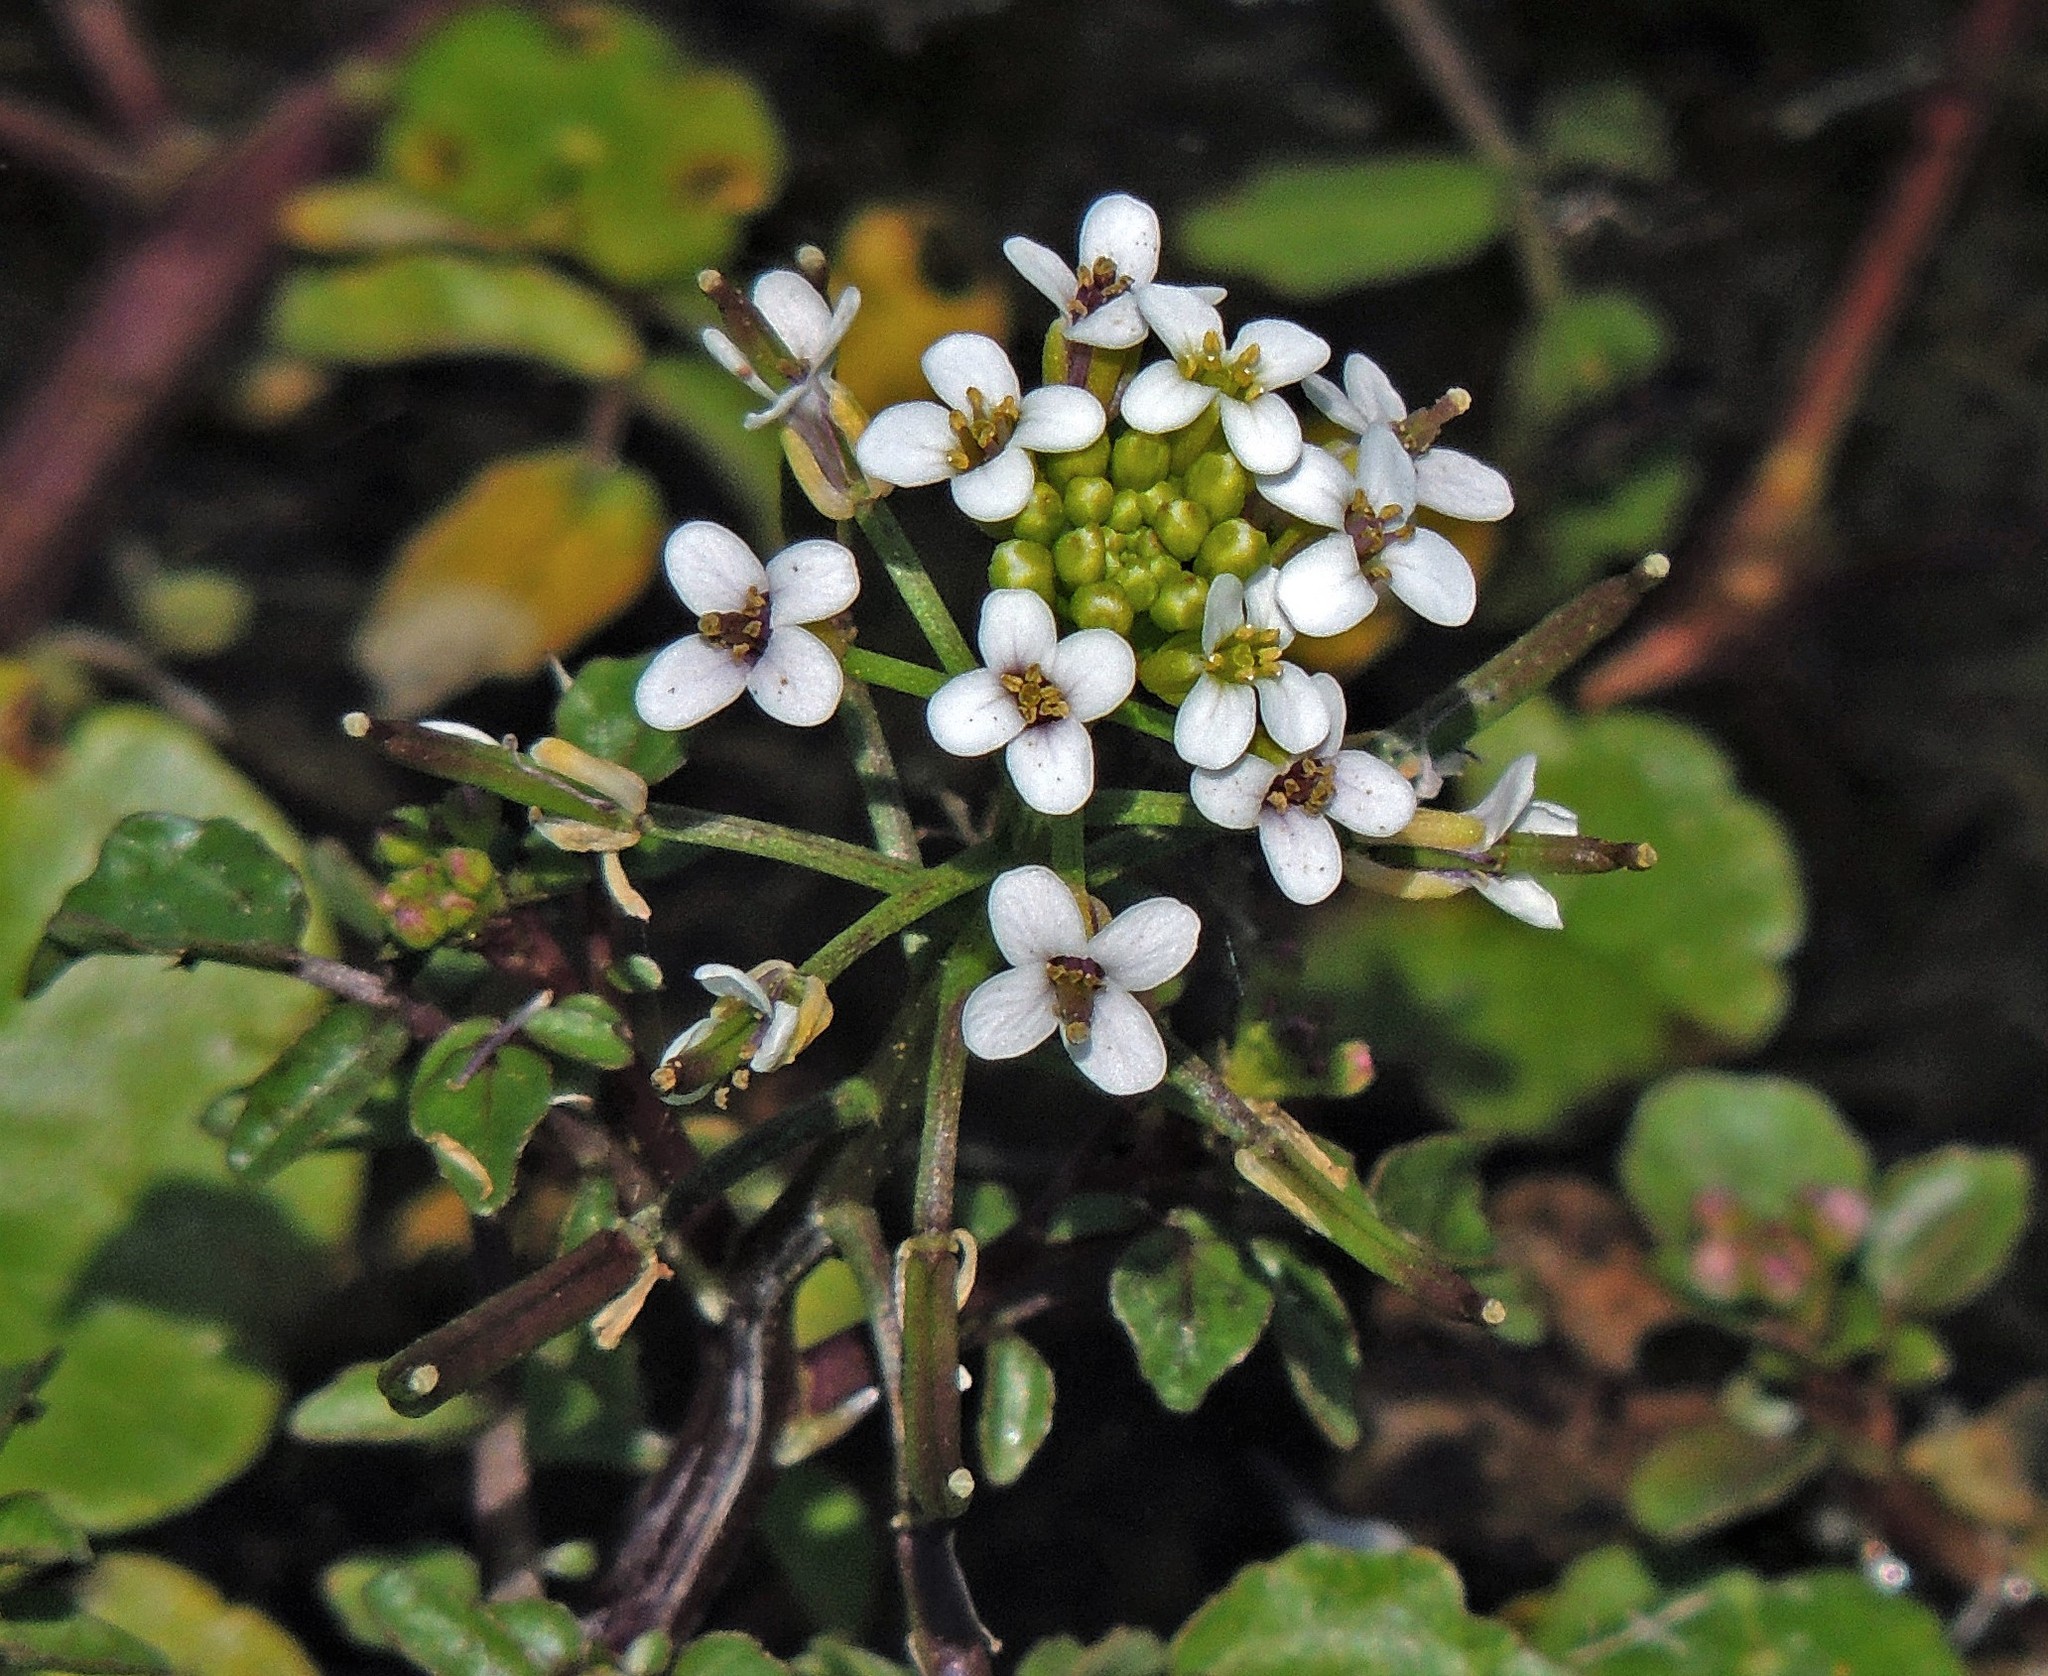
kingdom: Plantae
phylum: Tracheophyta
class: Magnoliopsida
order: Brassicales
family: Brassicaceae
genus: Nasturtium
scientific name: Nasturtium officinale
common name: Watercress
